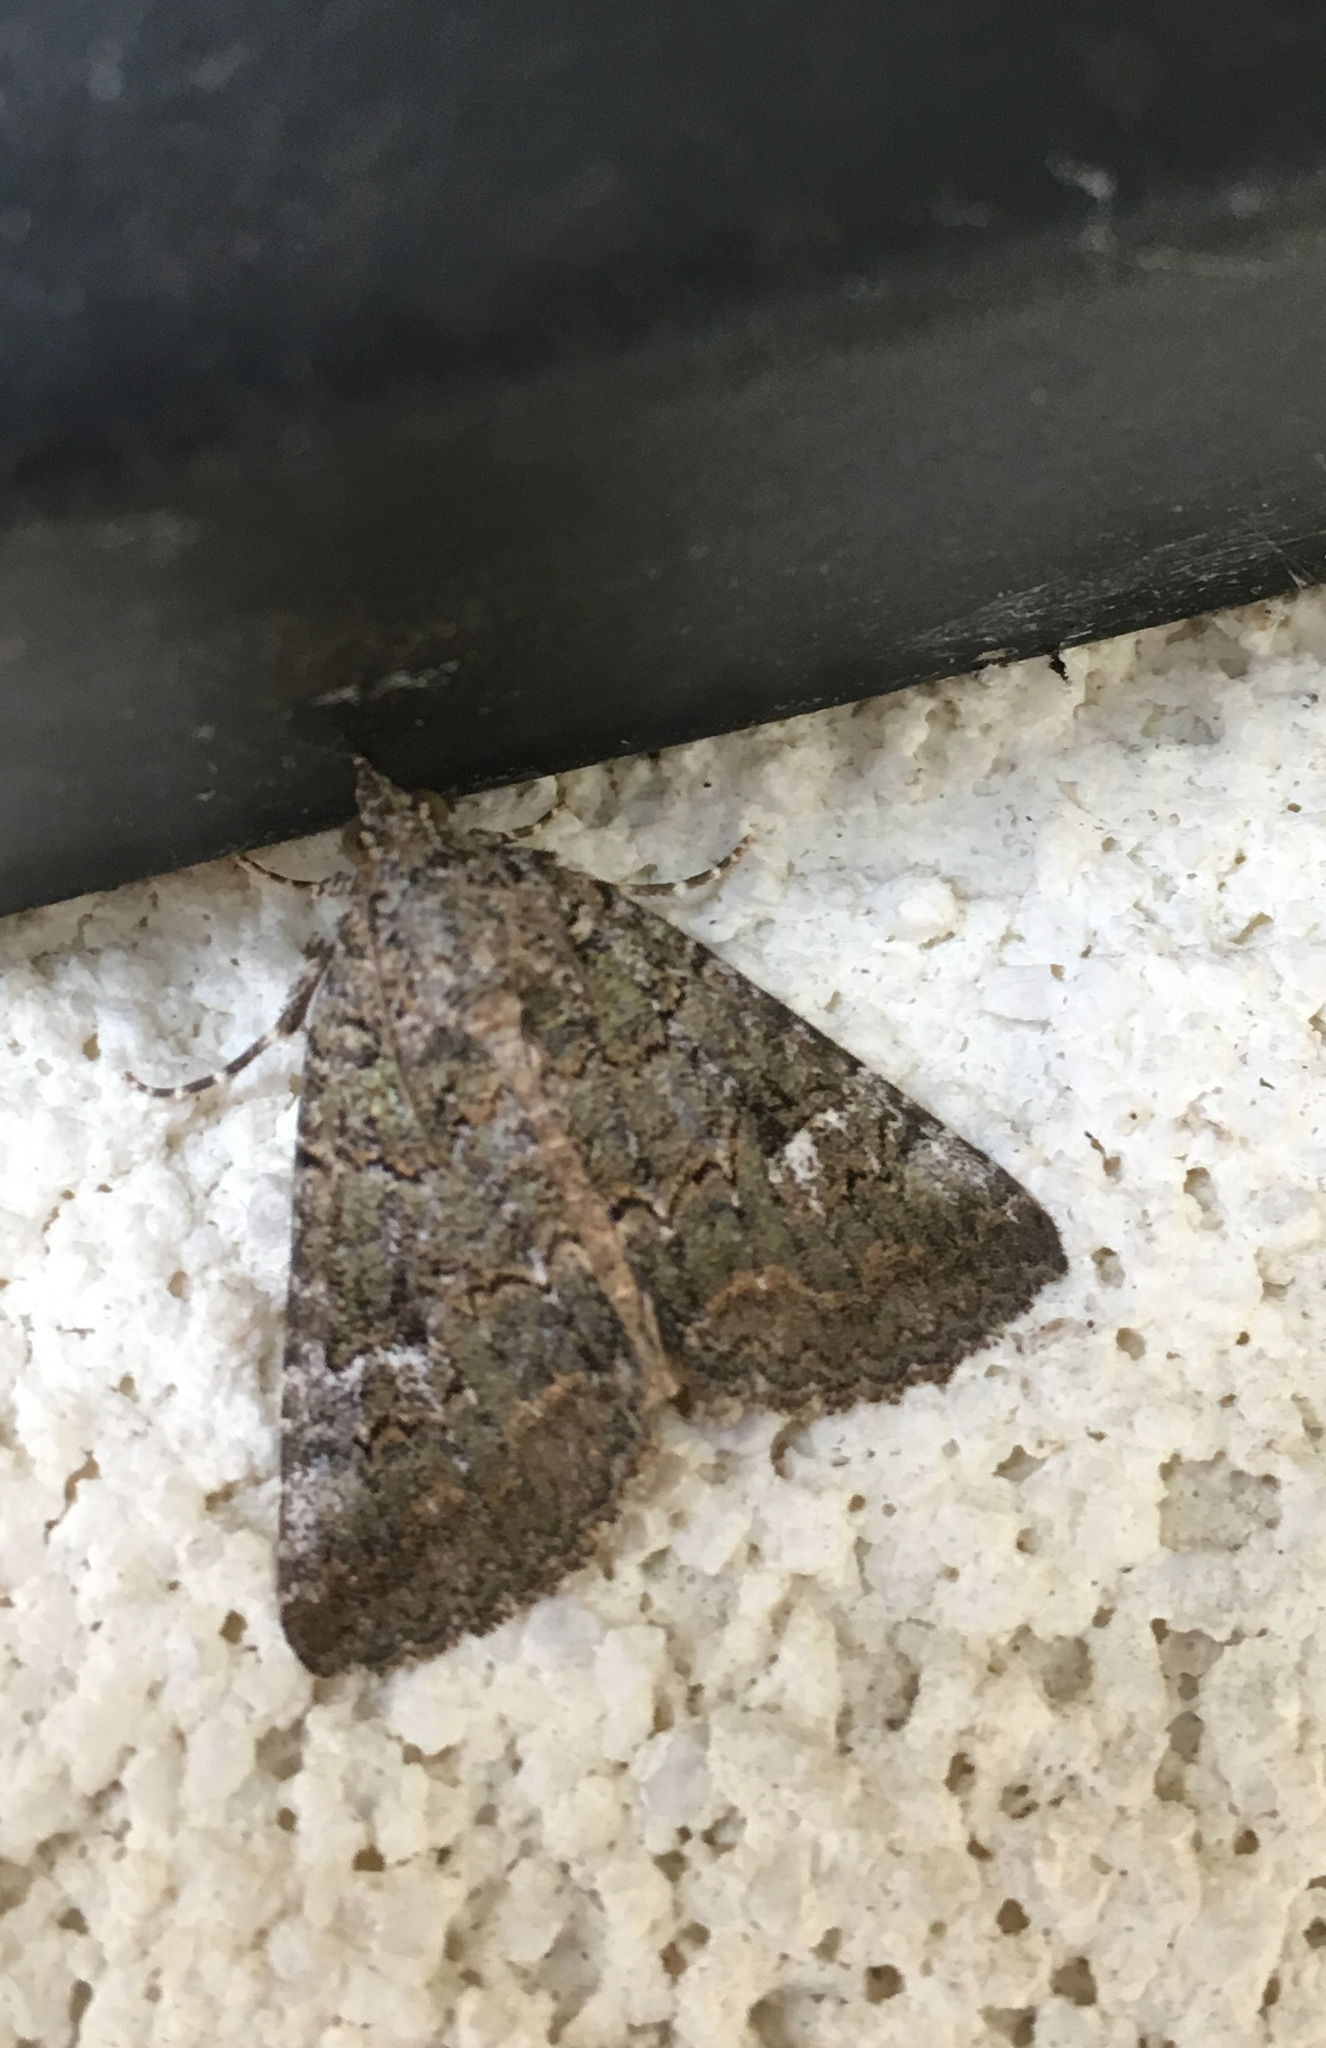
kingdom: Animalia
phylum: Arthropoda
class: Insecta
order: Lepidoptera
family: Erebidae
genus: Eubolina
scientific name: Eubolina impartialis
